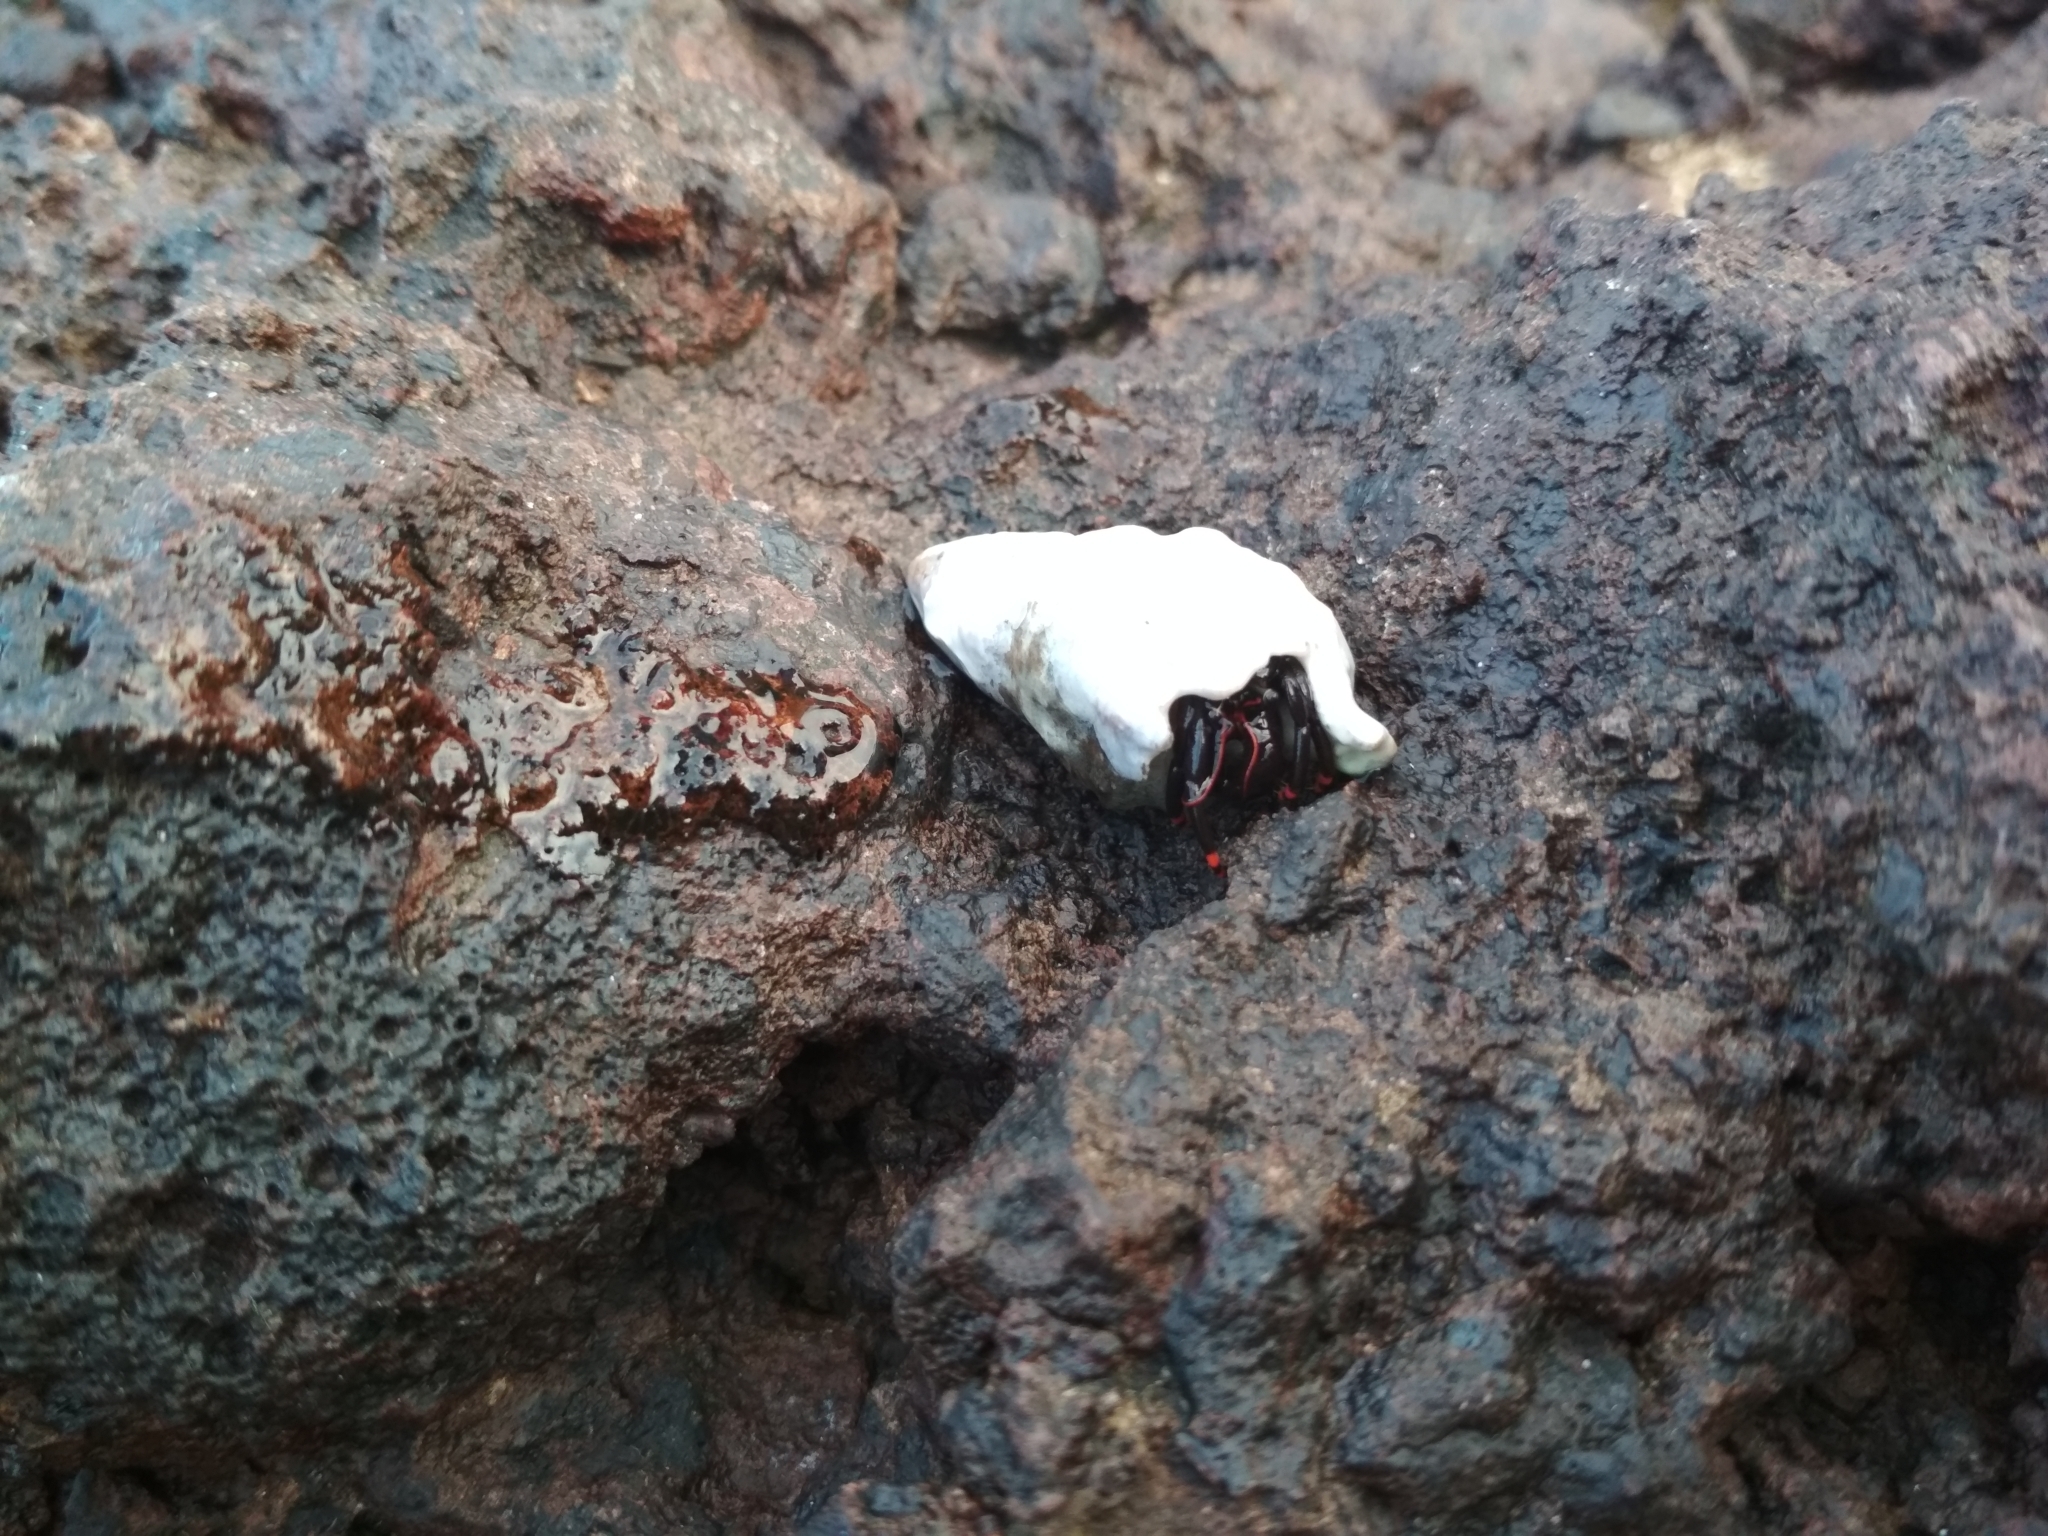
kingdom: Animalia
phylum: Arthropoda
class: Malacostraca
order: Decapoda
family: Diogenidae
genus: Calcinus
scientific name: Calcinus explorator
